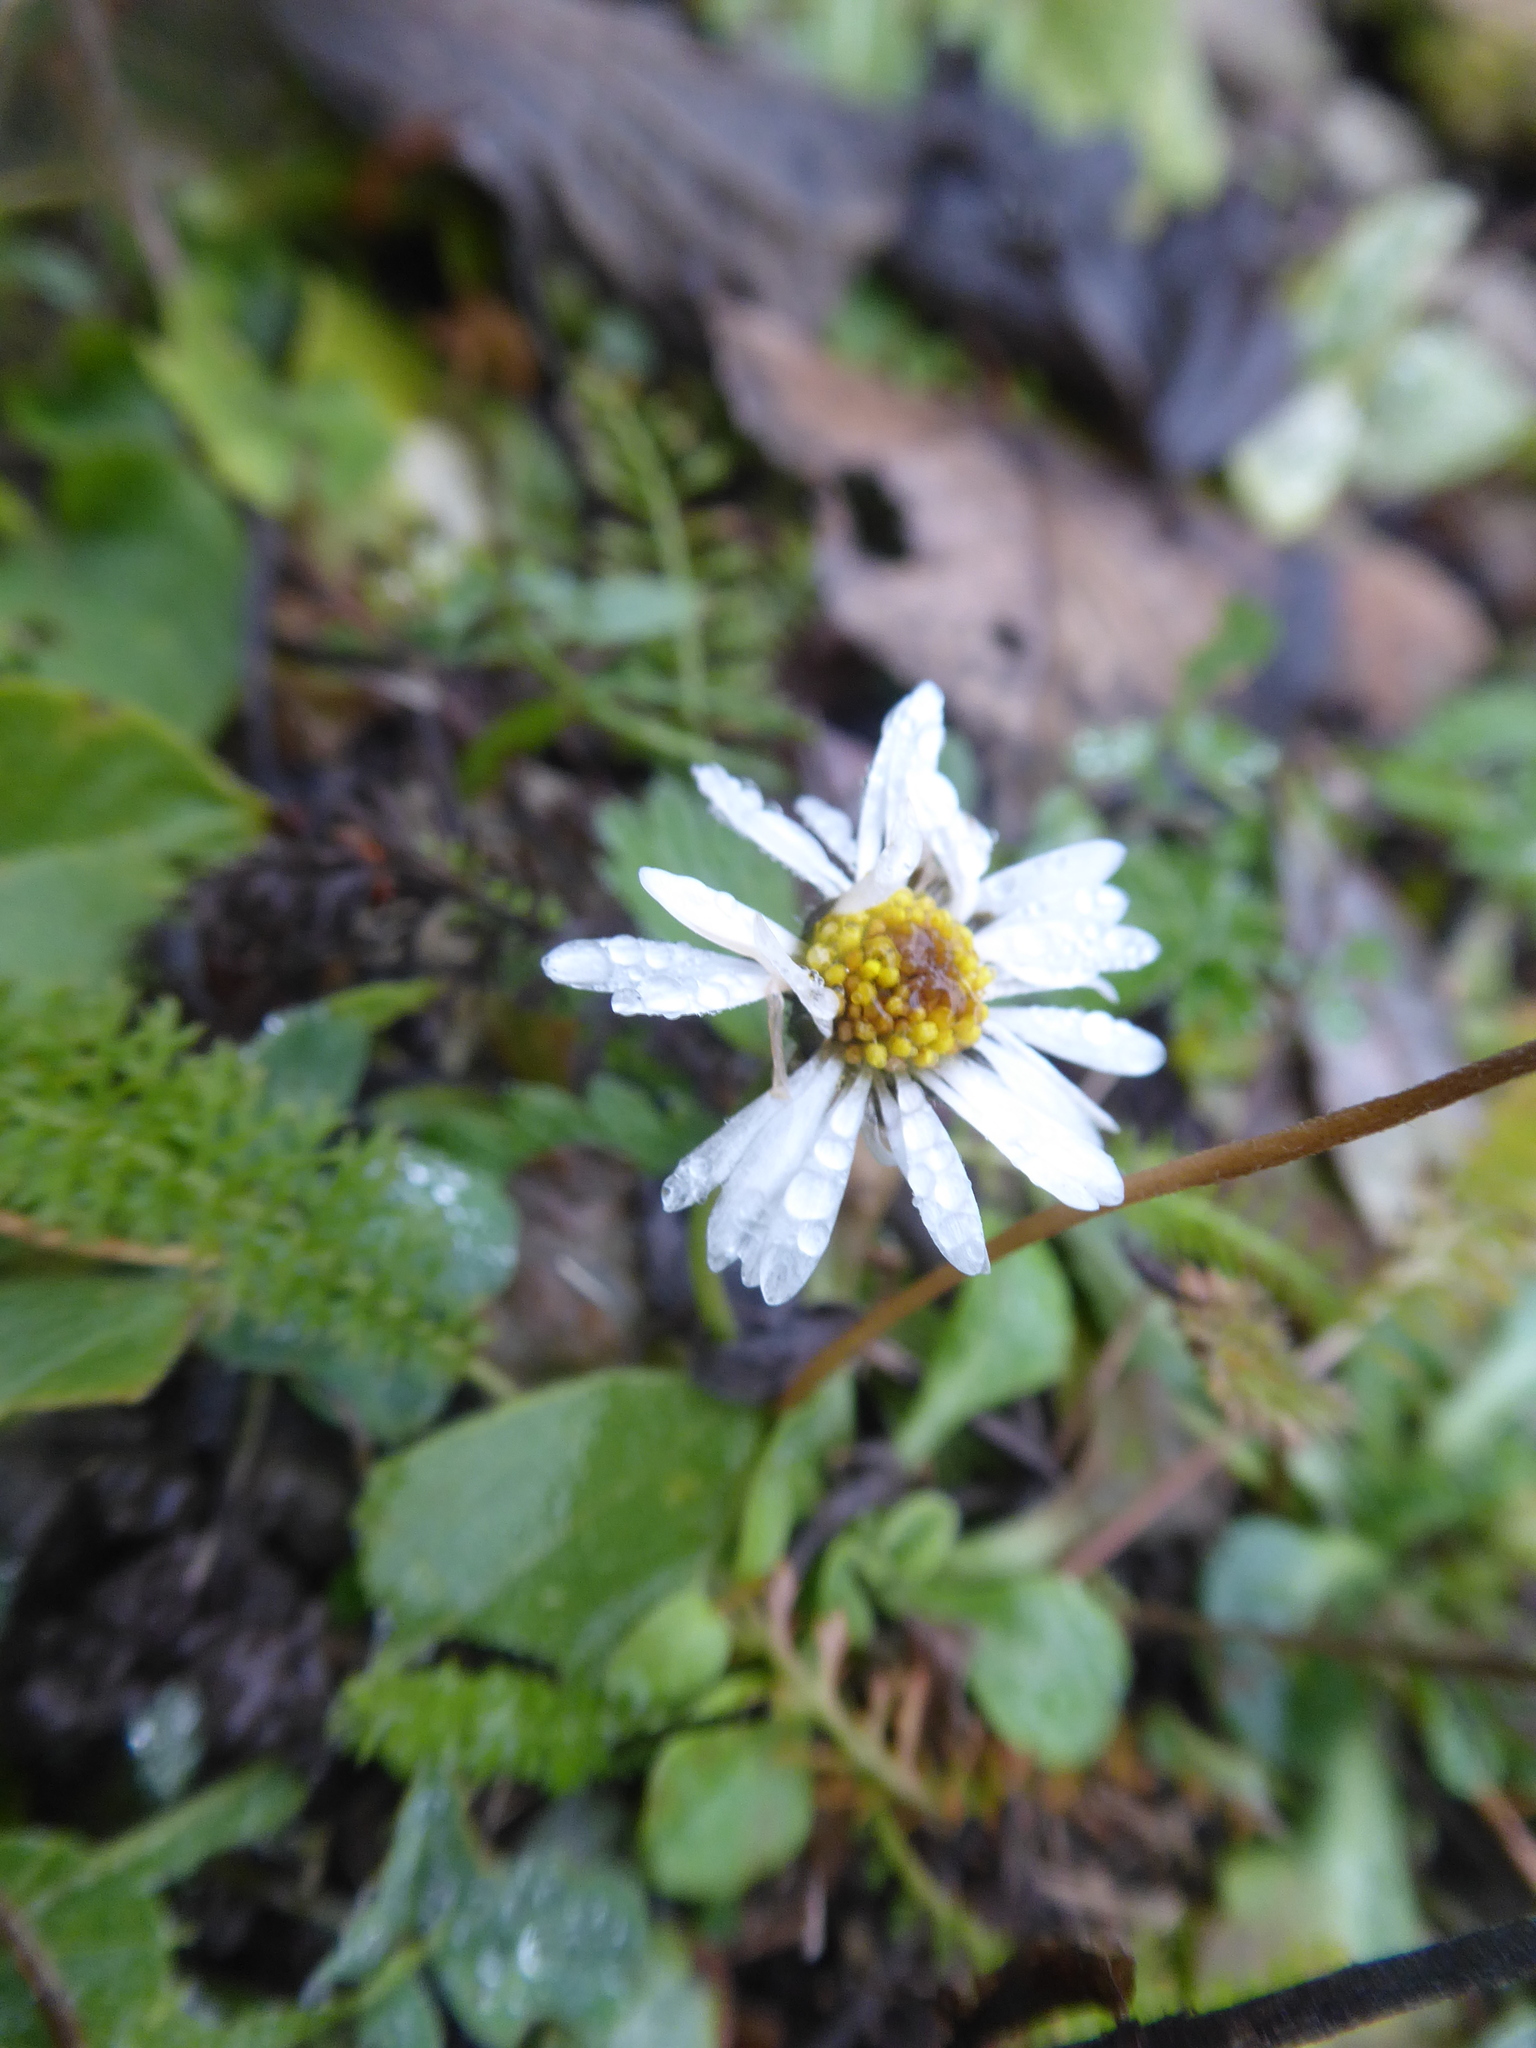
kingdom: Plantae
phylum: Tracheophyta
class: Magnoliopsida
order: Asterales
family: Asteraceae
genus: Bellis
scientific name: Bellis perennis
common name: Lawndaisy
